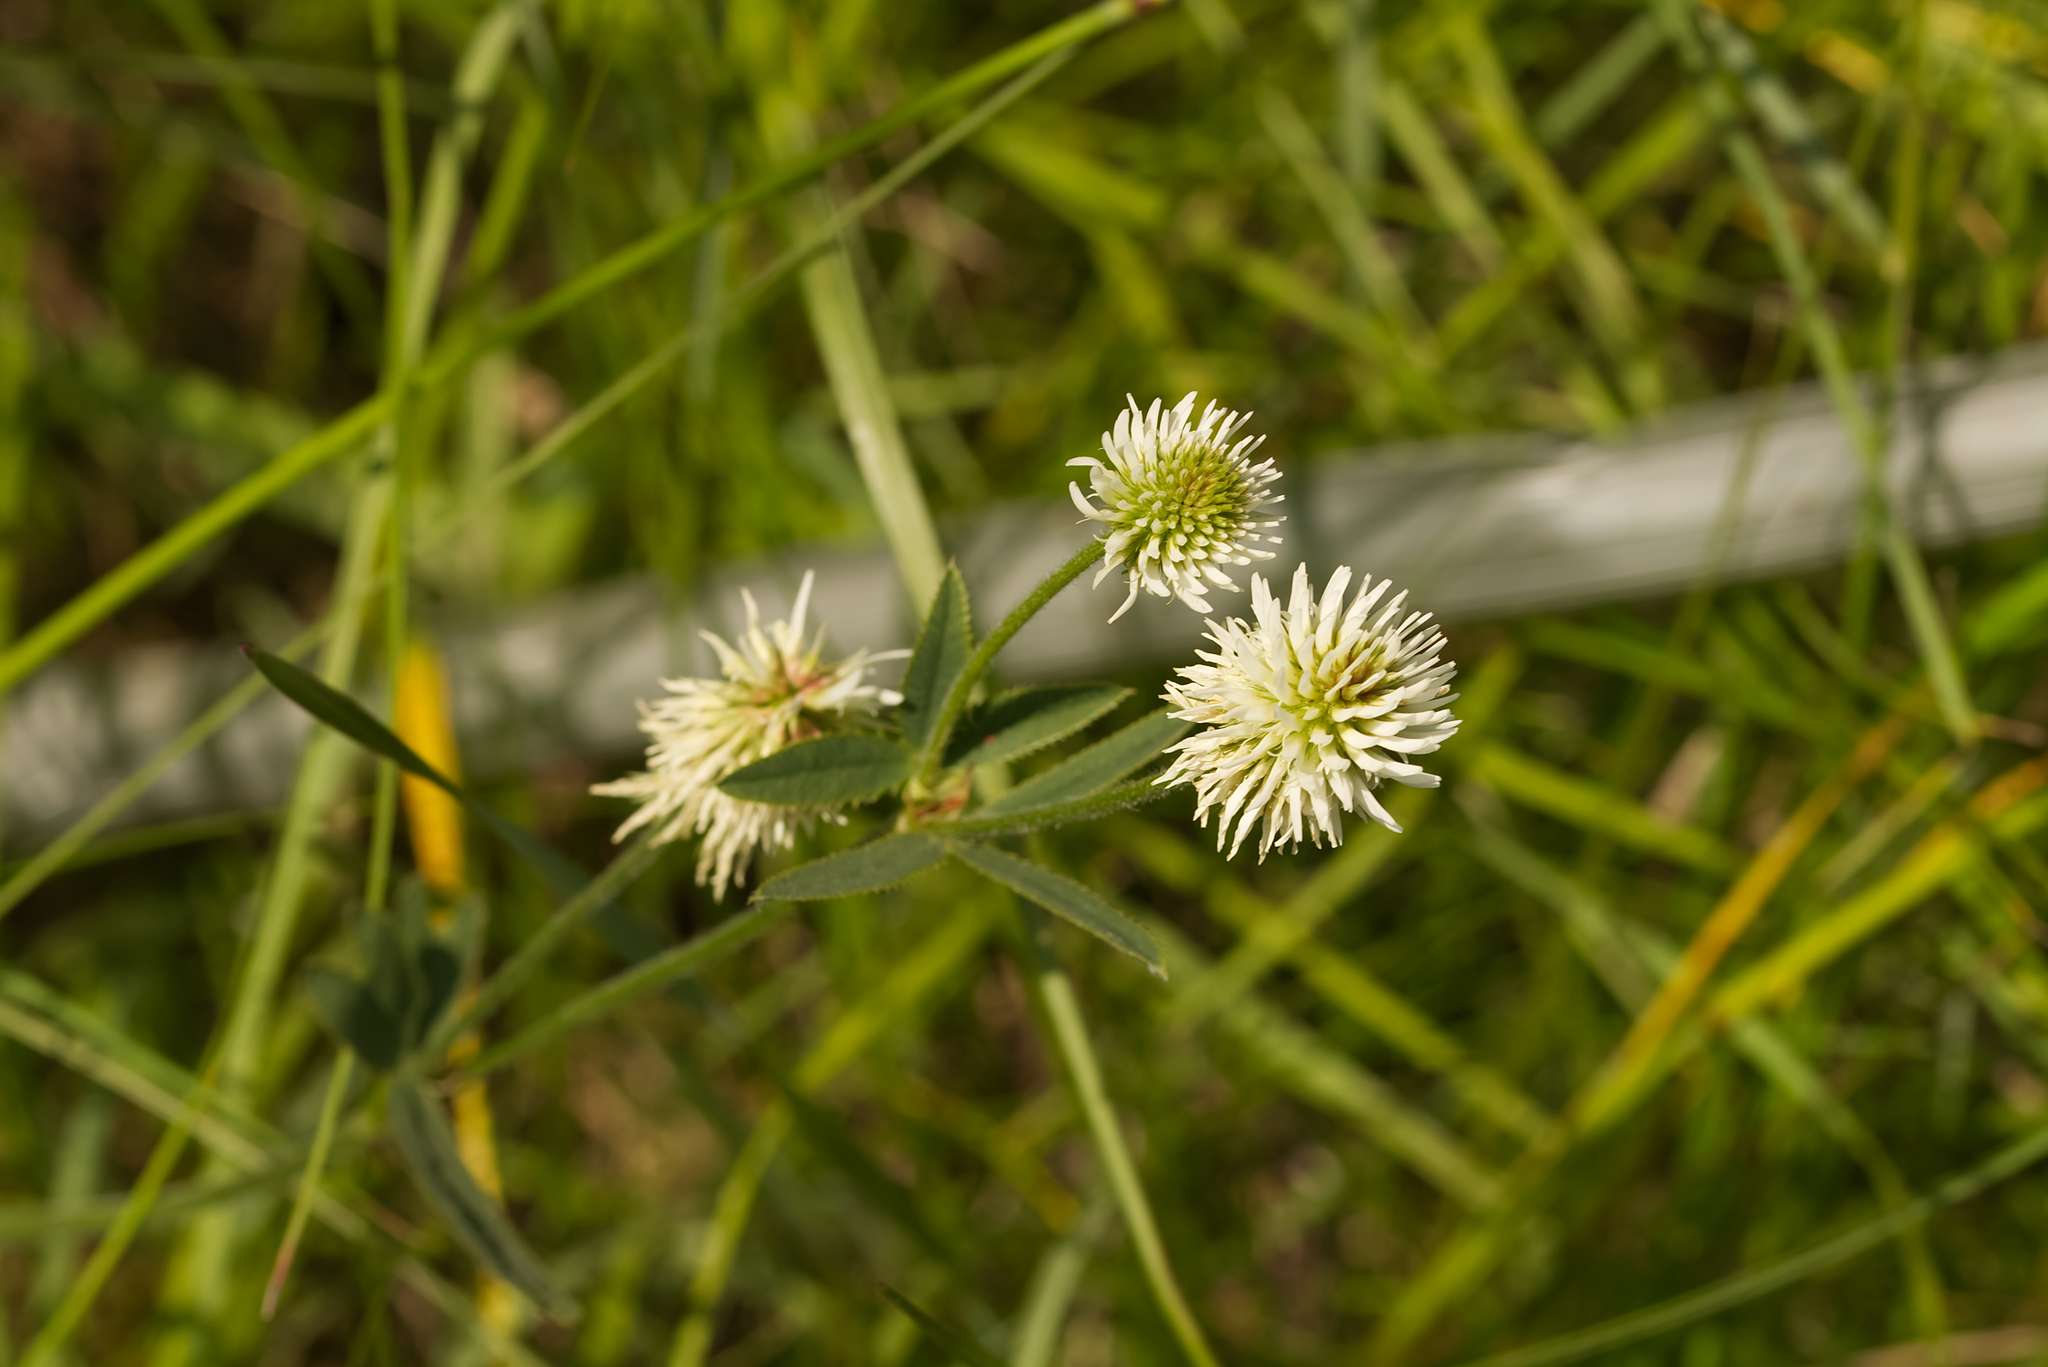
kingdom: Plantae
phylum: Tracheophyta
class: Magnoliopsida
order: Fabales
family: Fabaceae
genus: Trifolium
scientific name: Trifolium montanum
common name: Mountain clover
